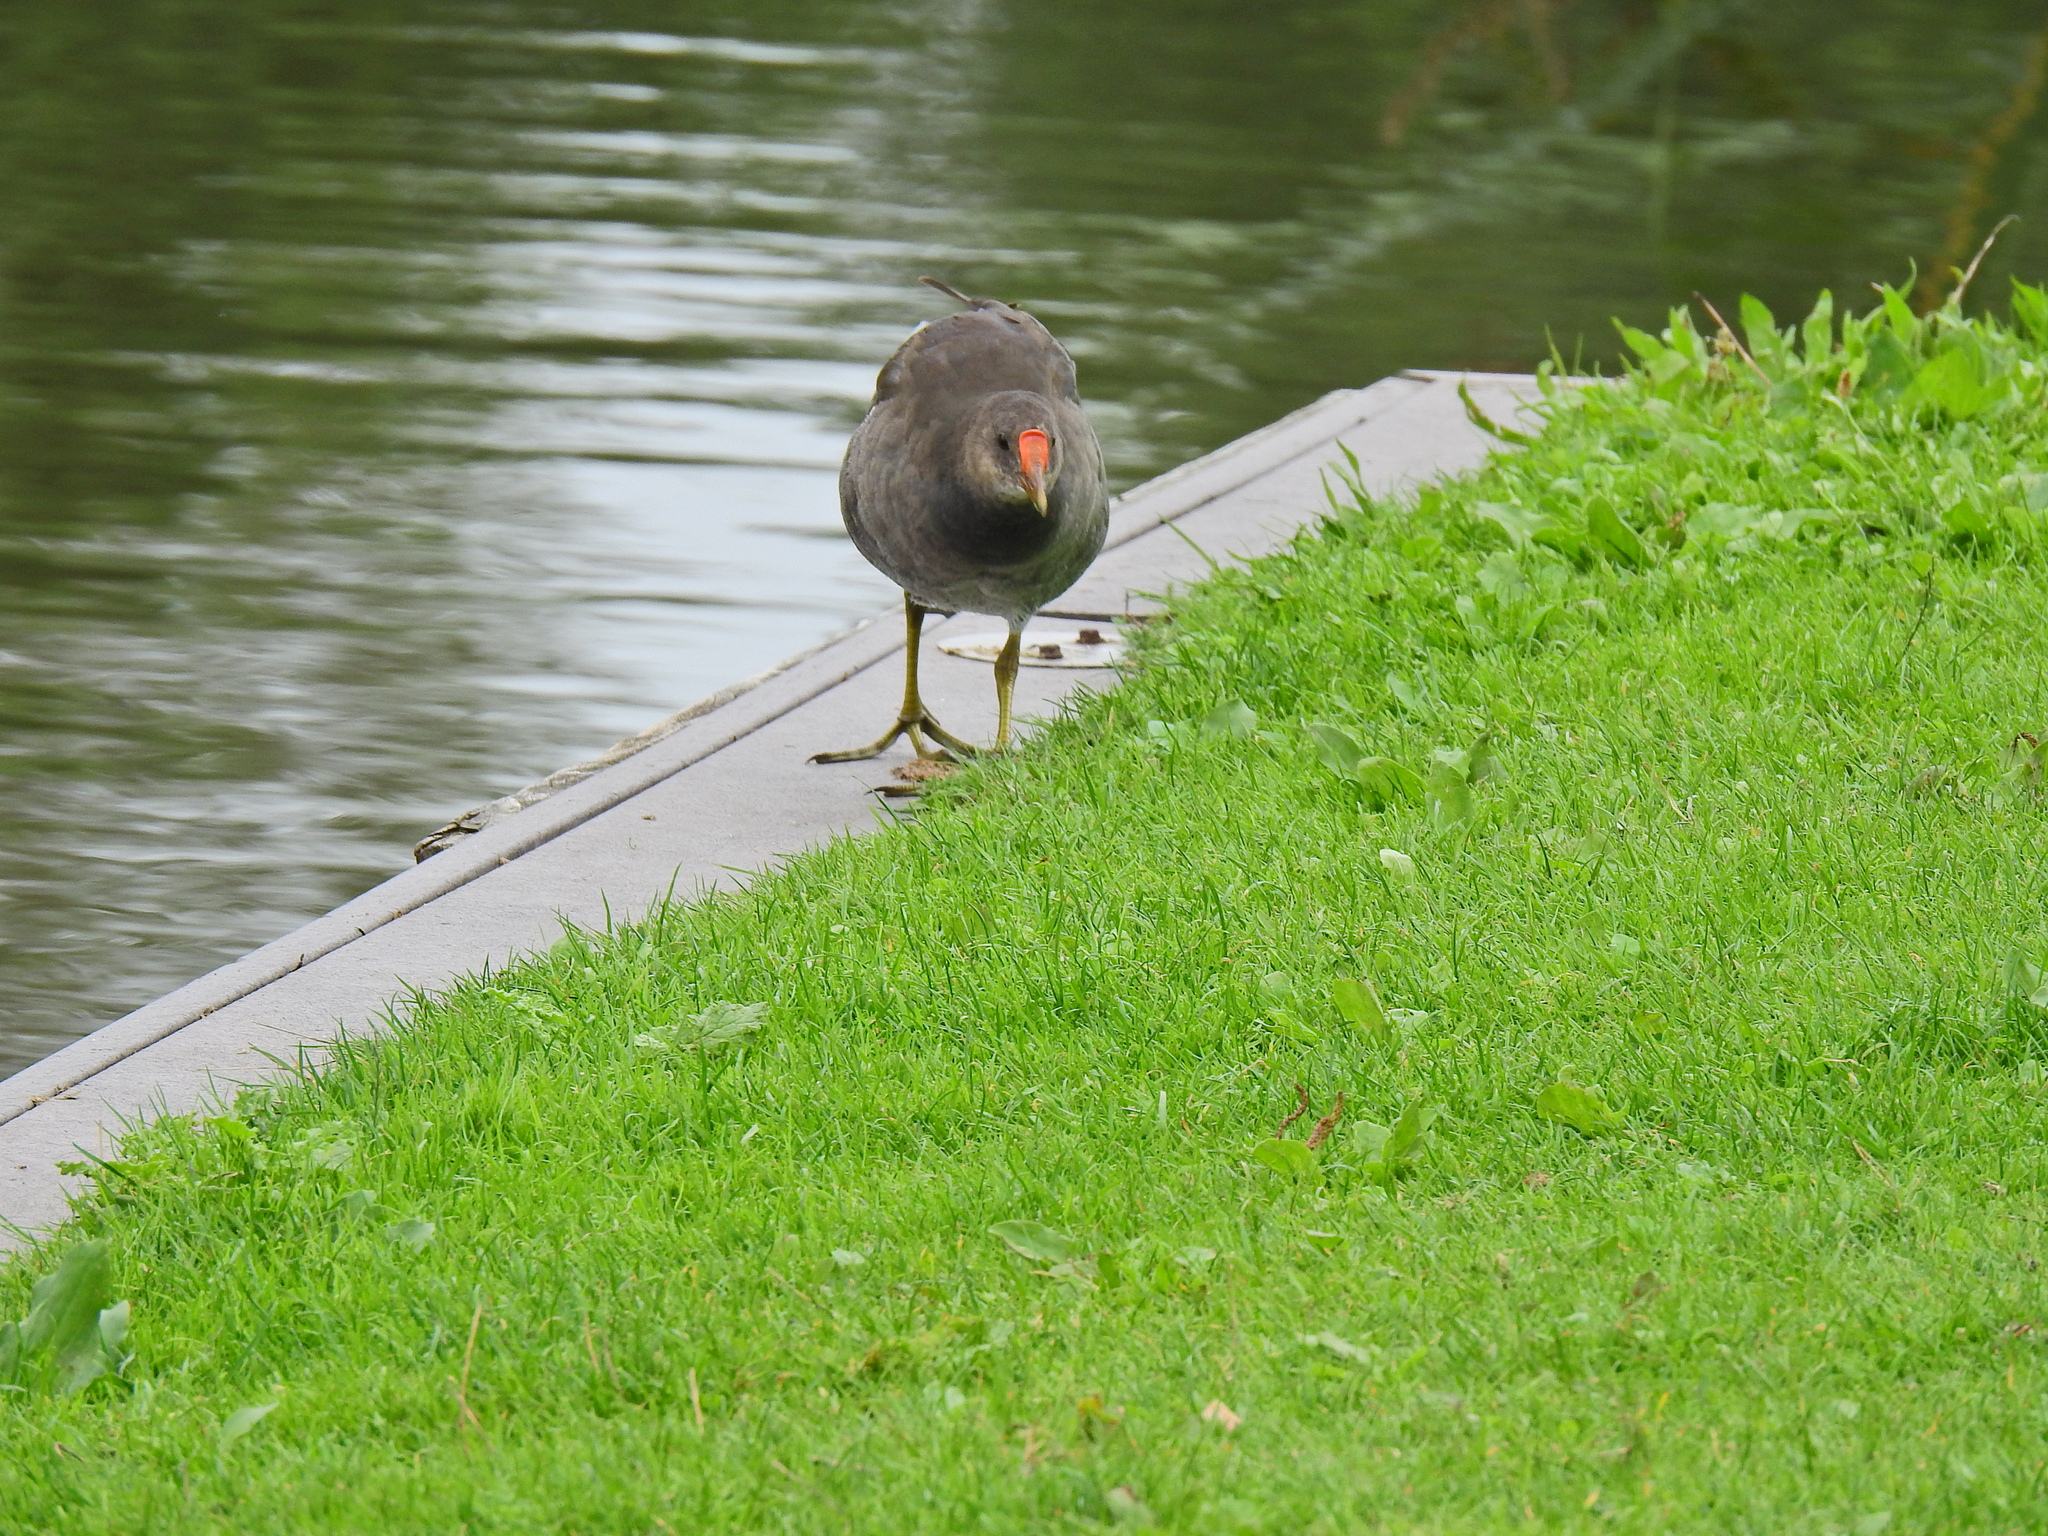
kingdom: Animalia
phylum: Chordata
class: Aves
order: Gruiformes
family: Rallidae
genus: Gallinula
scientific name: Gallinula chloropus
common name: Common moorhen
